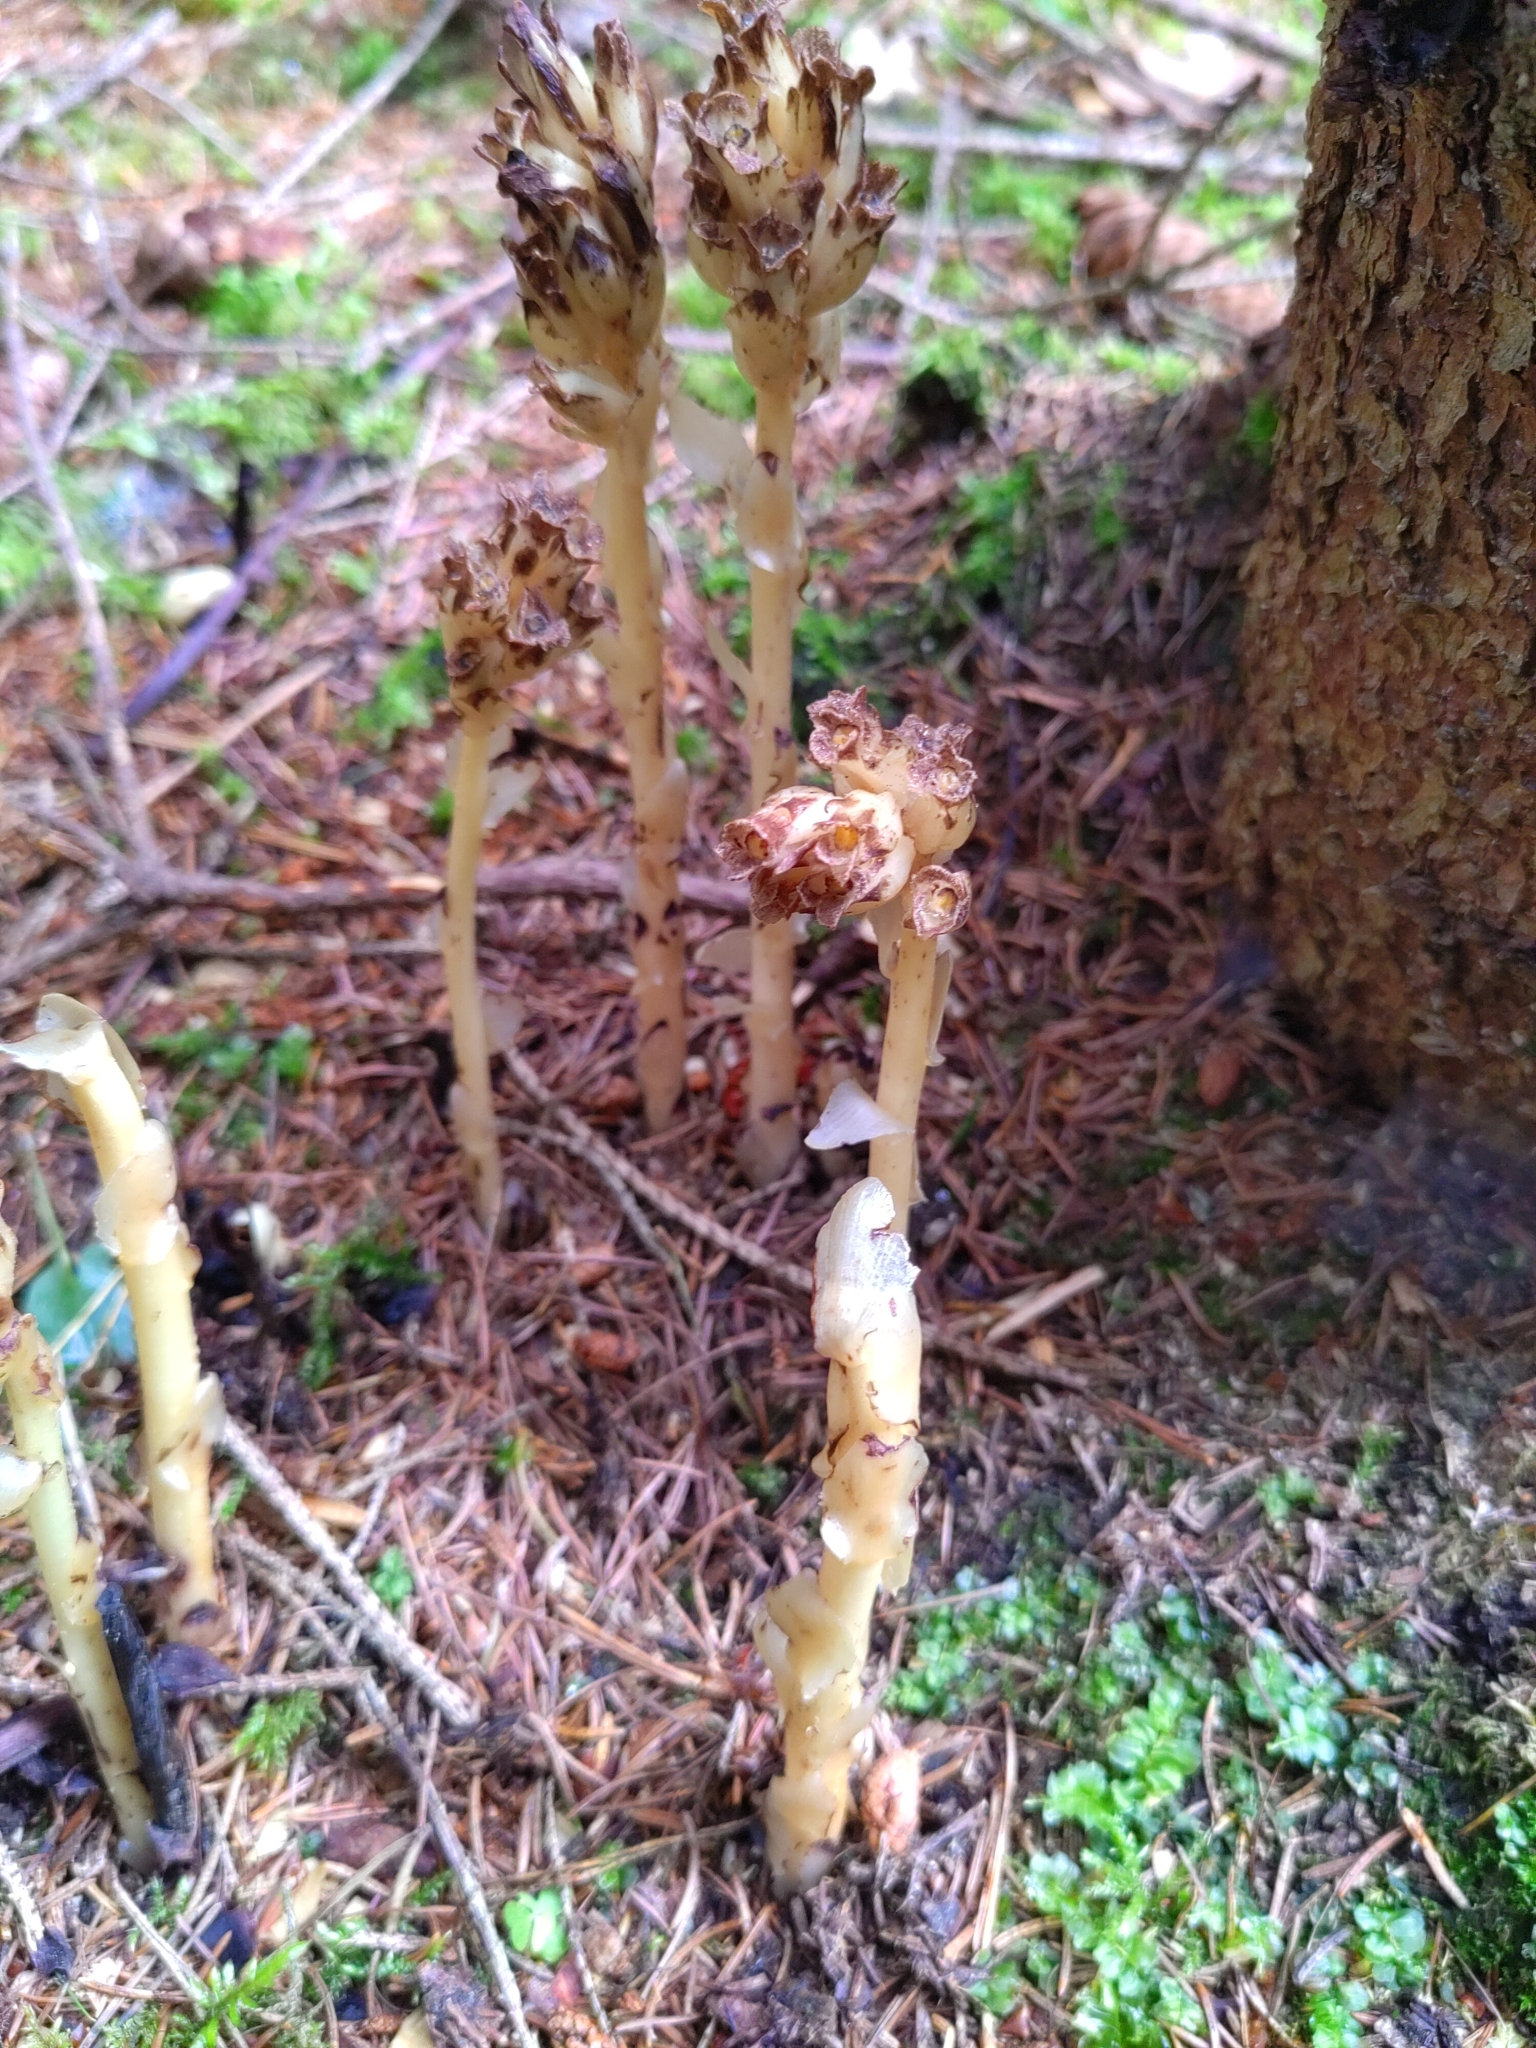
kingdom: Plantae
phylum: Tracheophyta
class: Magnoliopsida
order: Ericales
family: Ericaceae
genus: Hypopitys
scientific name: Hypopitys monotropa
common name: Yellow bird's-nest
